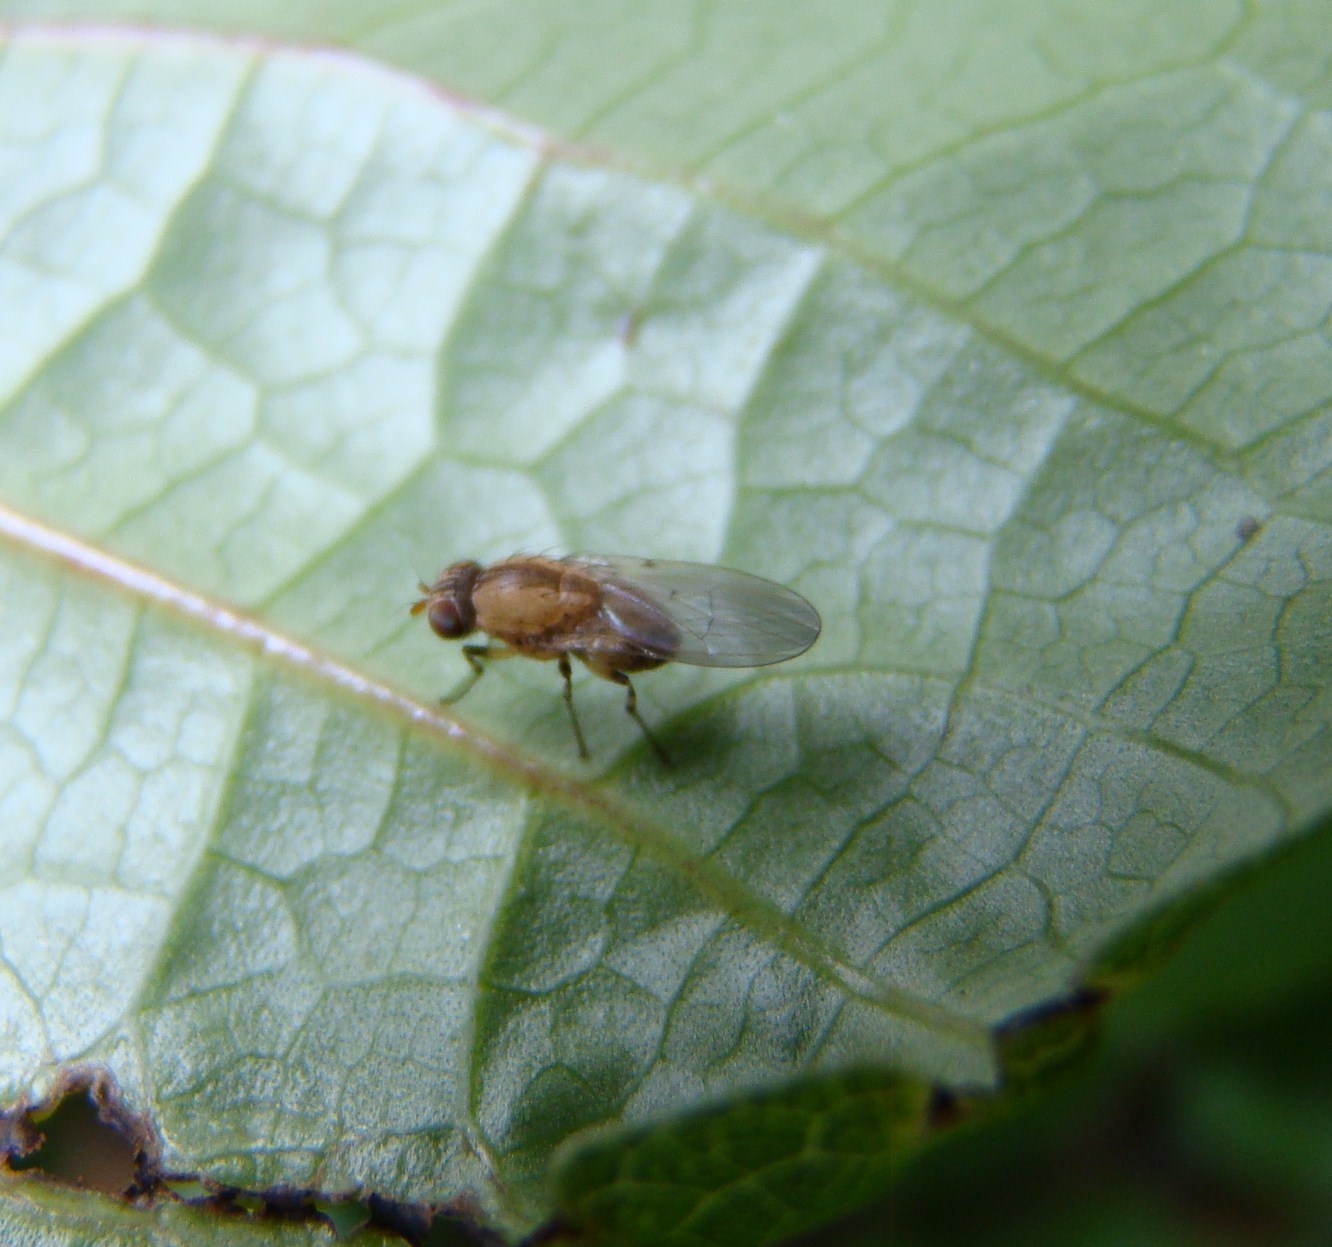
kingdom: Animalia
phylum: Arthropoda
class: Insecta
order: Diptera
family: Lauxaniidae
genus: Sapromyza
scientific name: Sapromyza neozelandica
